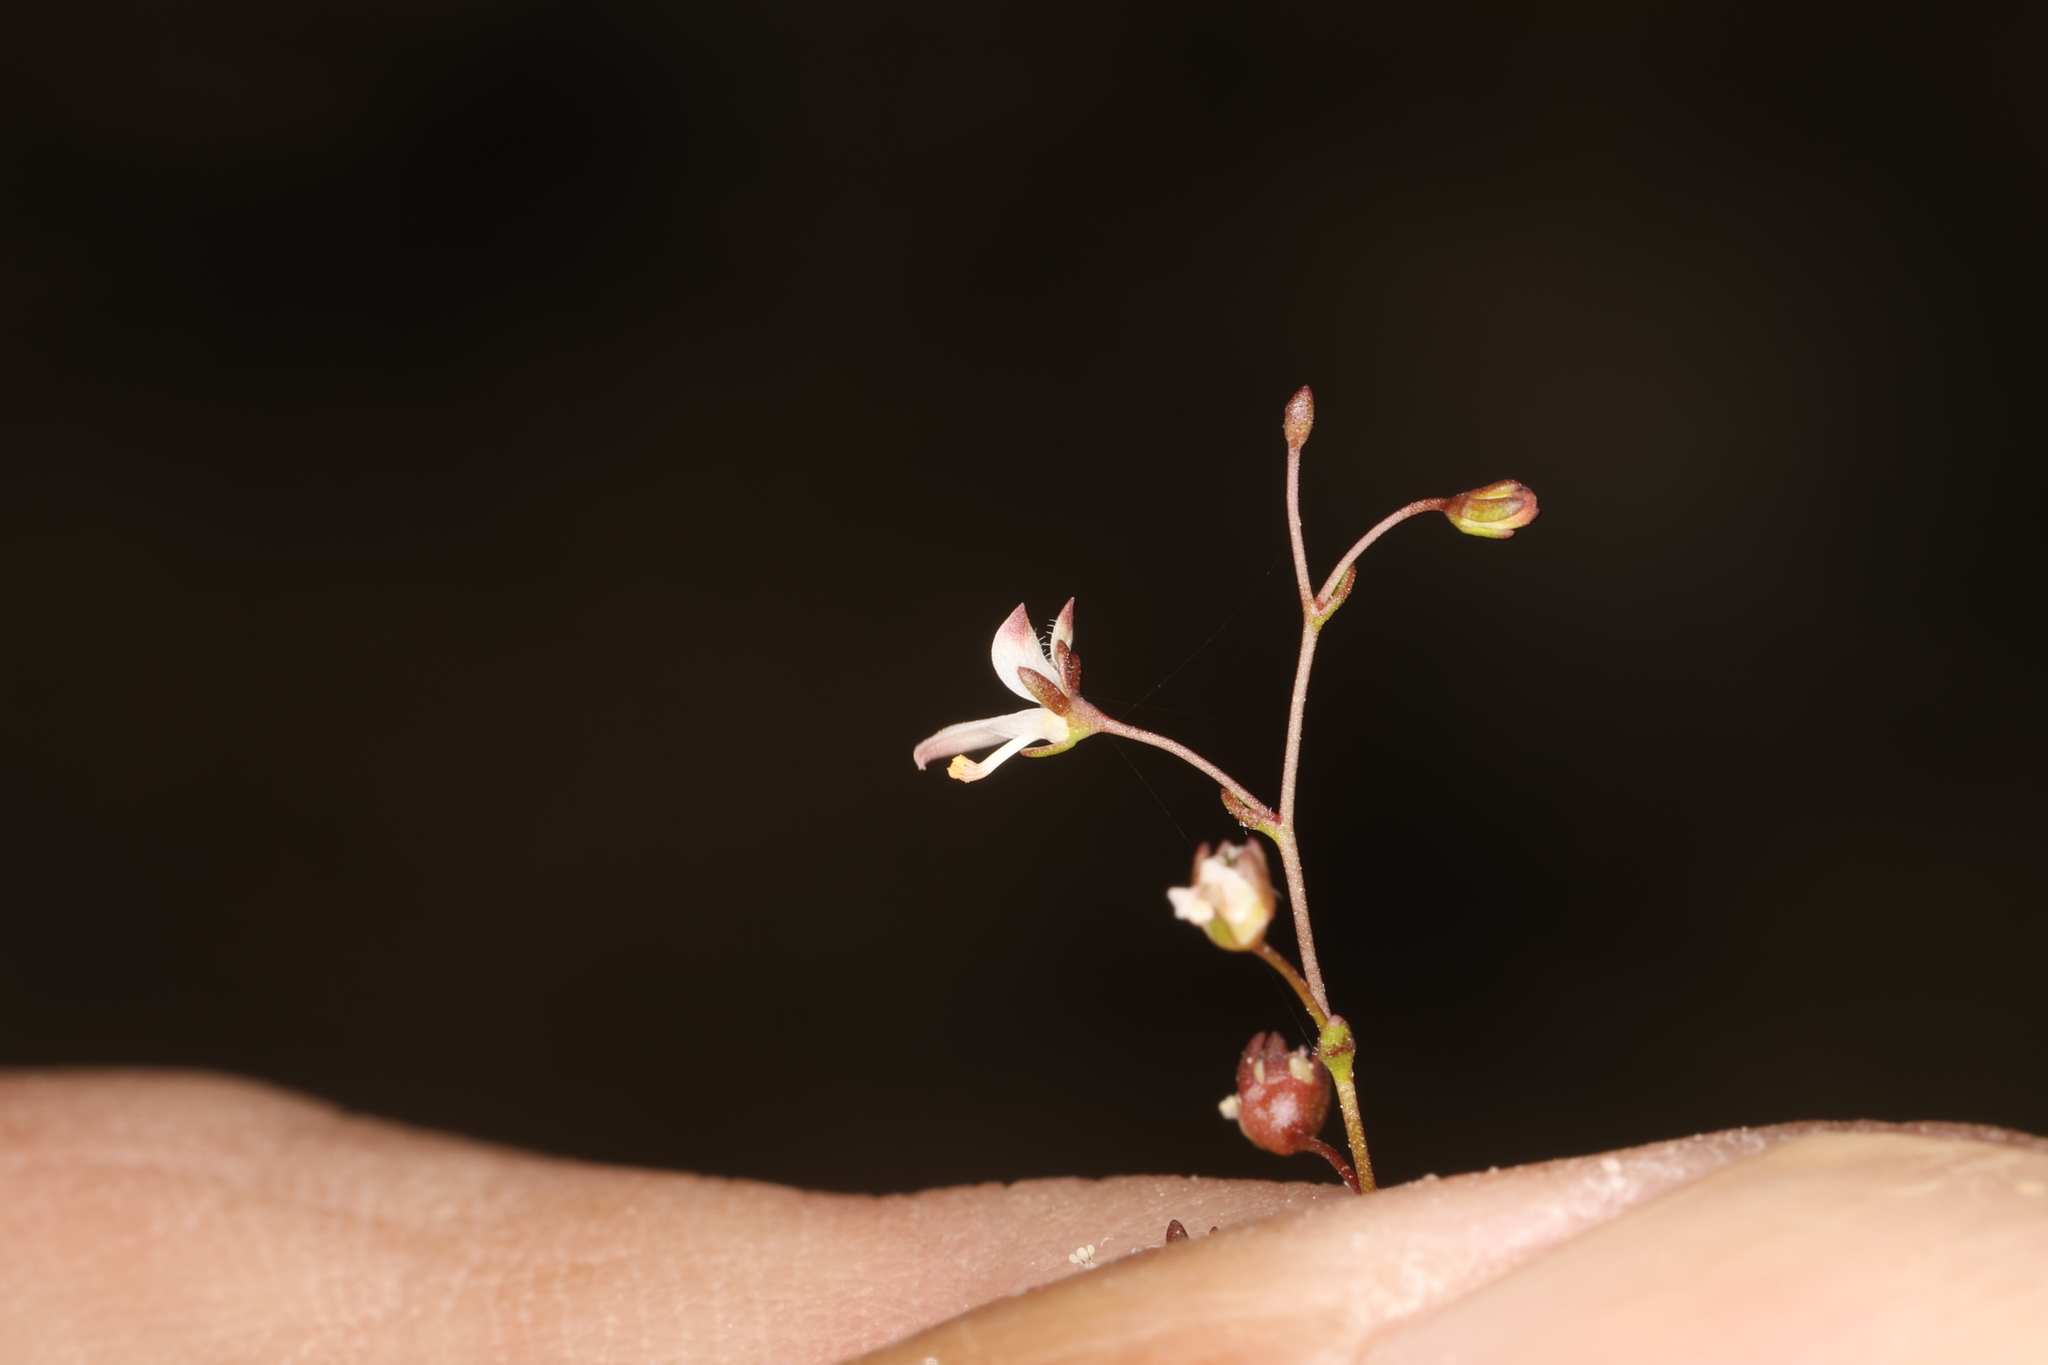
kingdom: Plantae
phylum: Tracheophyta
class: Magnoliopsida
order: Asterales
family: Campanulaceae
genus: Nemacladus
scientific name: Nemacladus orientalis
